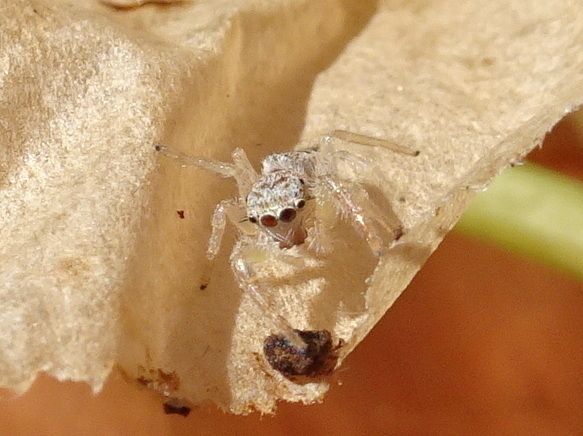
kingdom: Animalia
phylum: Arthropoda
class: Arachnida
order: Araneae
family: Salticidae
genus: Hentzia
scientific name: Hentzia mitrata
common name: White-jawed jumping spider
